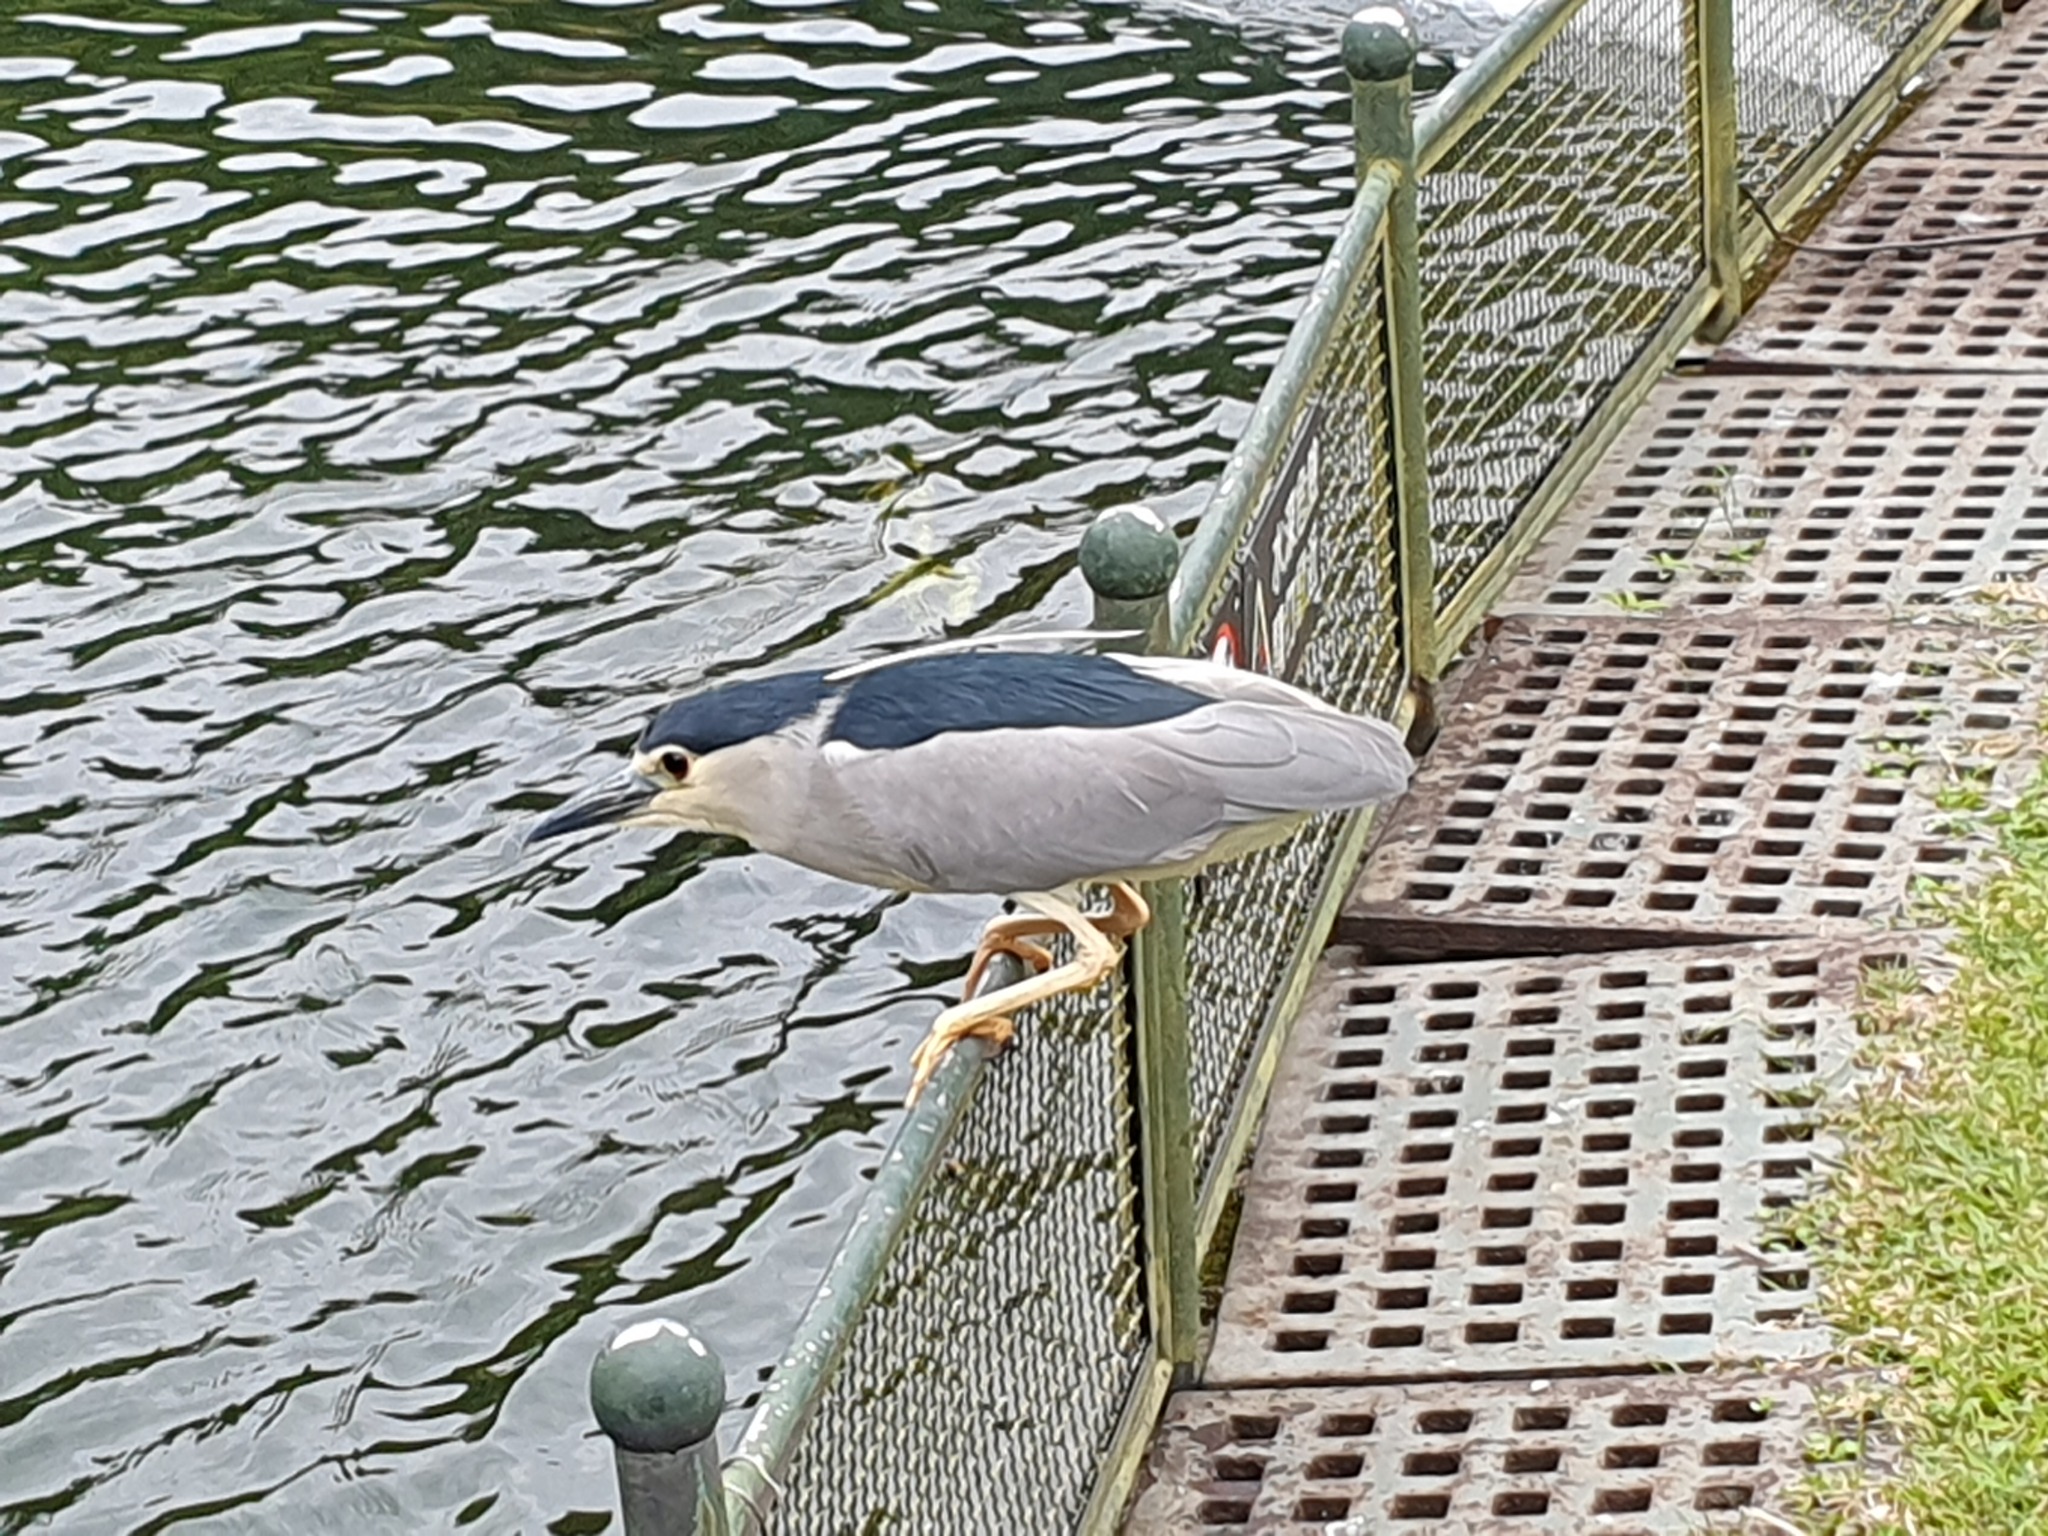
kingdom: Animalia
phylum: Chordata
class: Aves
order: Pelecaniformes
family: Ardeidae
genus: Nycticorax
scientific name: Nycticorax nycticorax
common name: Black-crowned night heron
